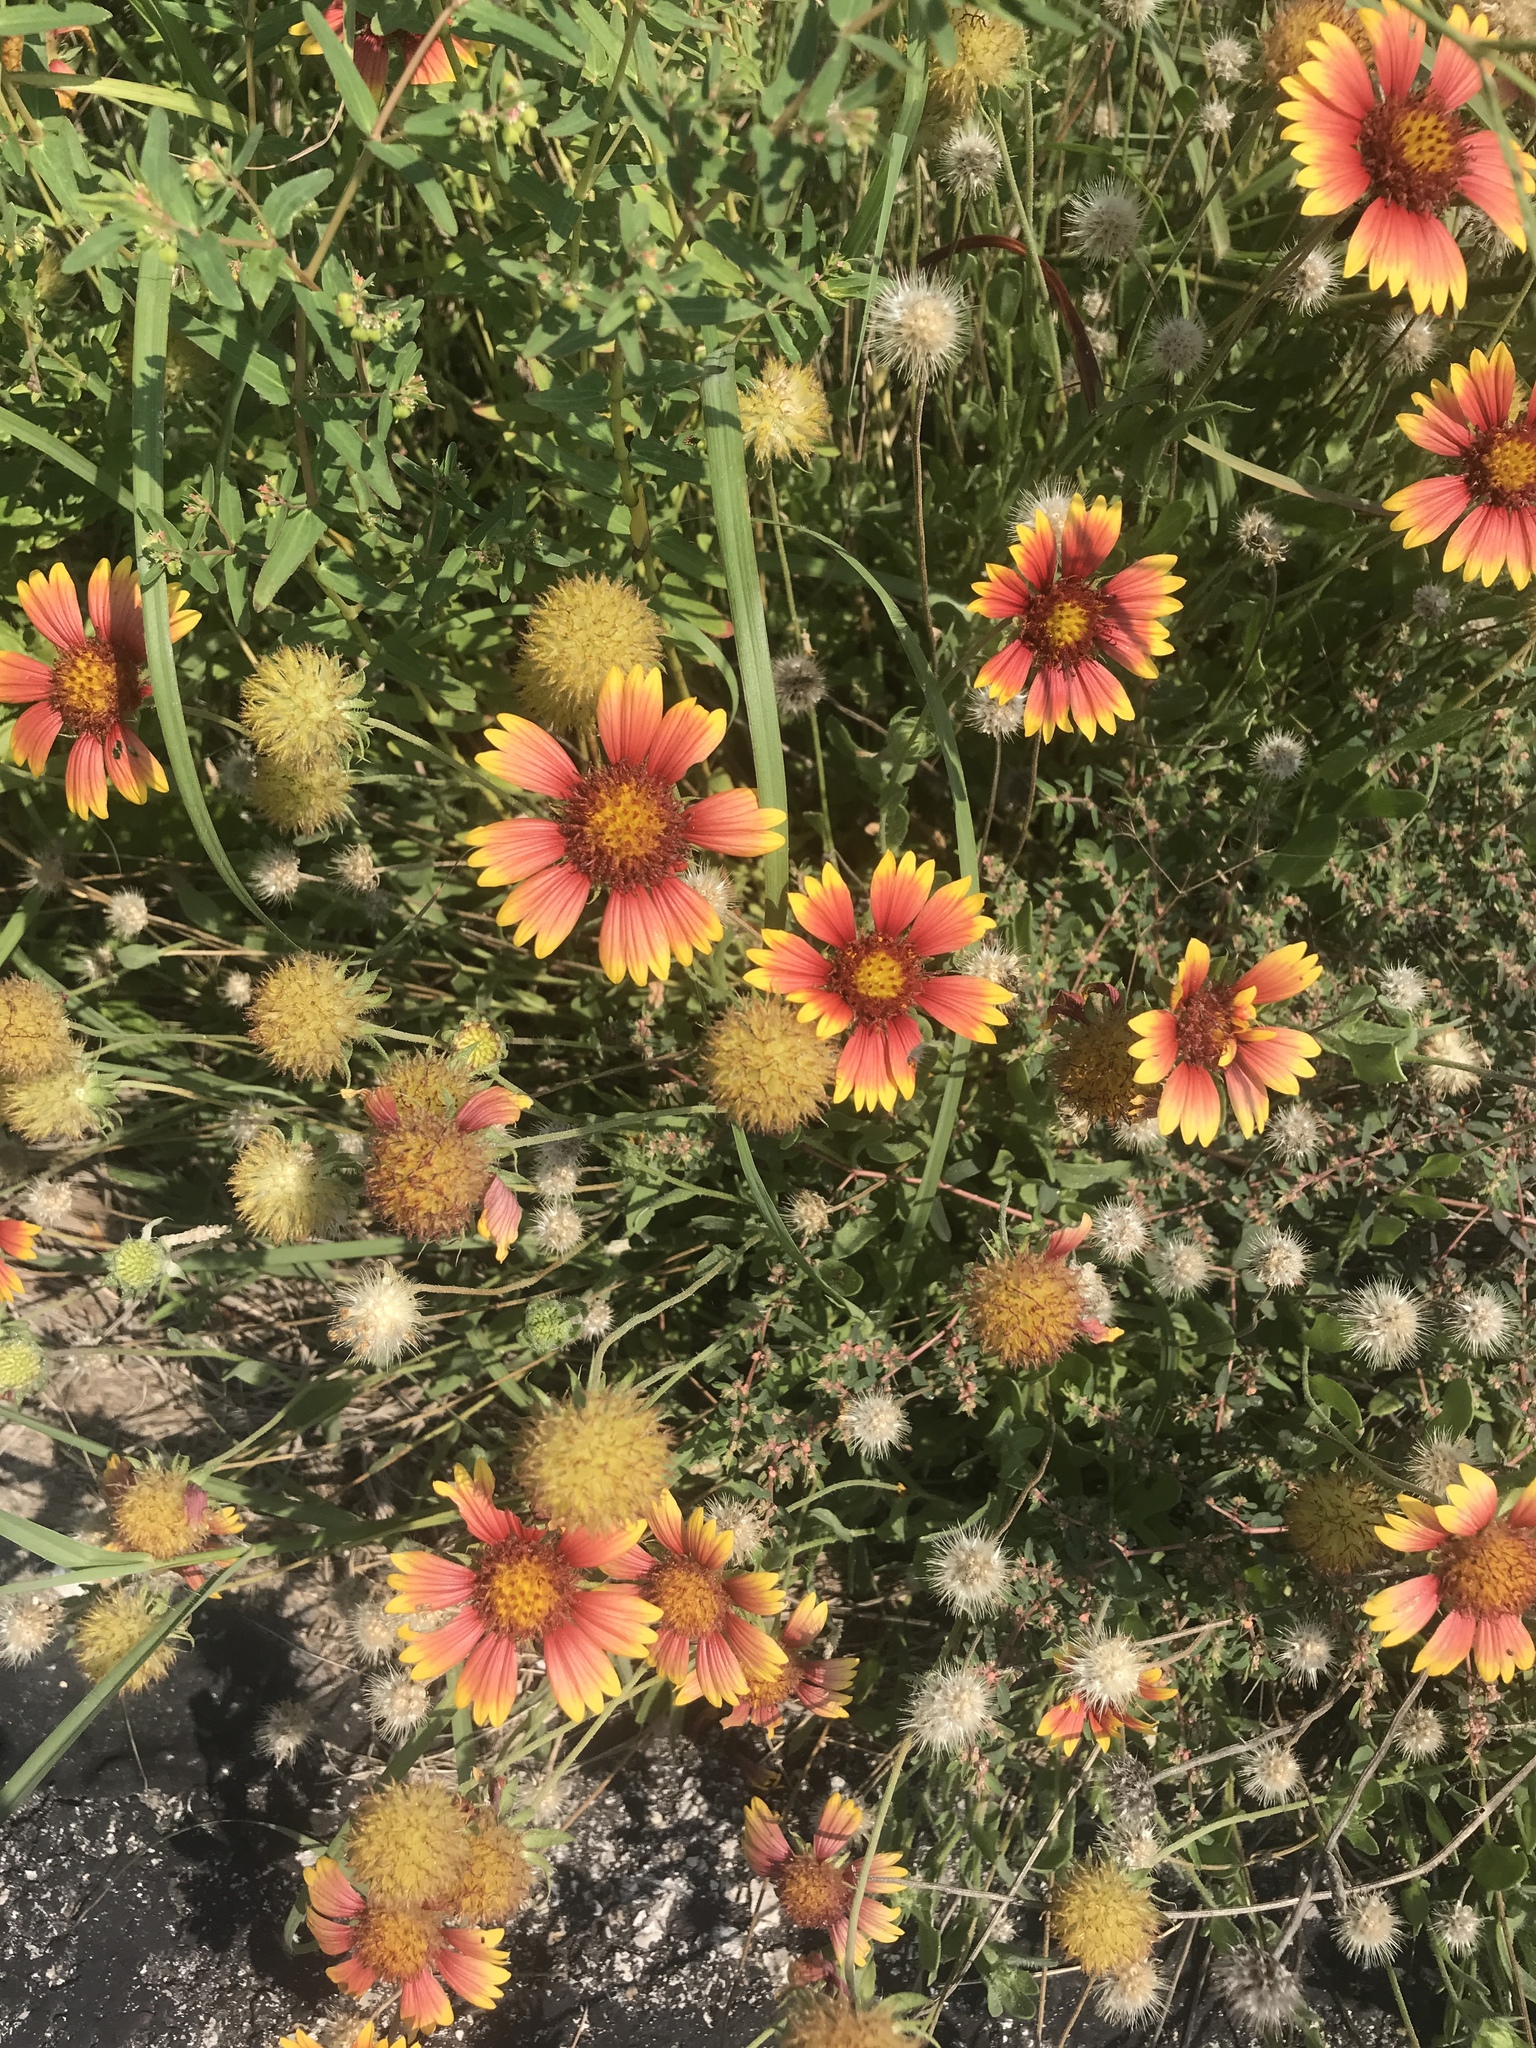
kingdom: Plantae
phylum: Tracheophyta
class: Magnoliopsida
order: Asterales
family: Asteraceae
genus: Gaillardia
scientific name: Gaillardia pulchella
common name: Firewheel
